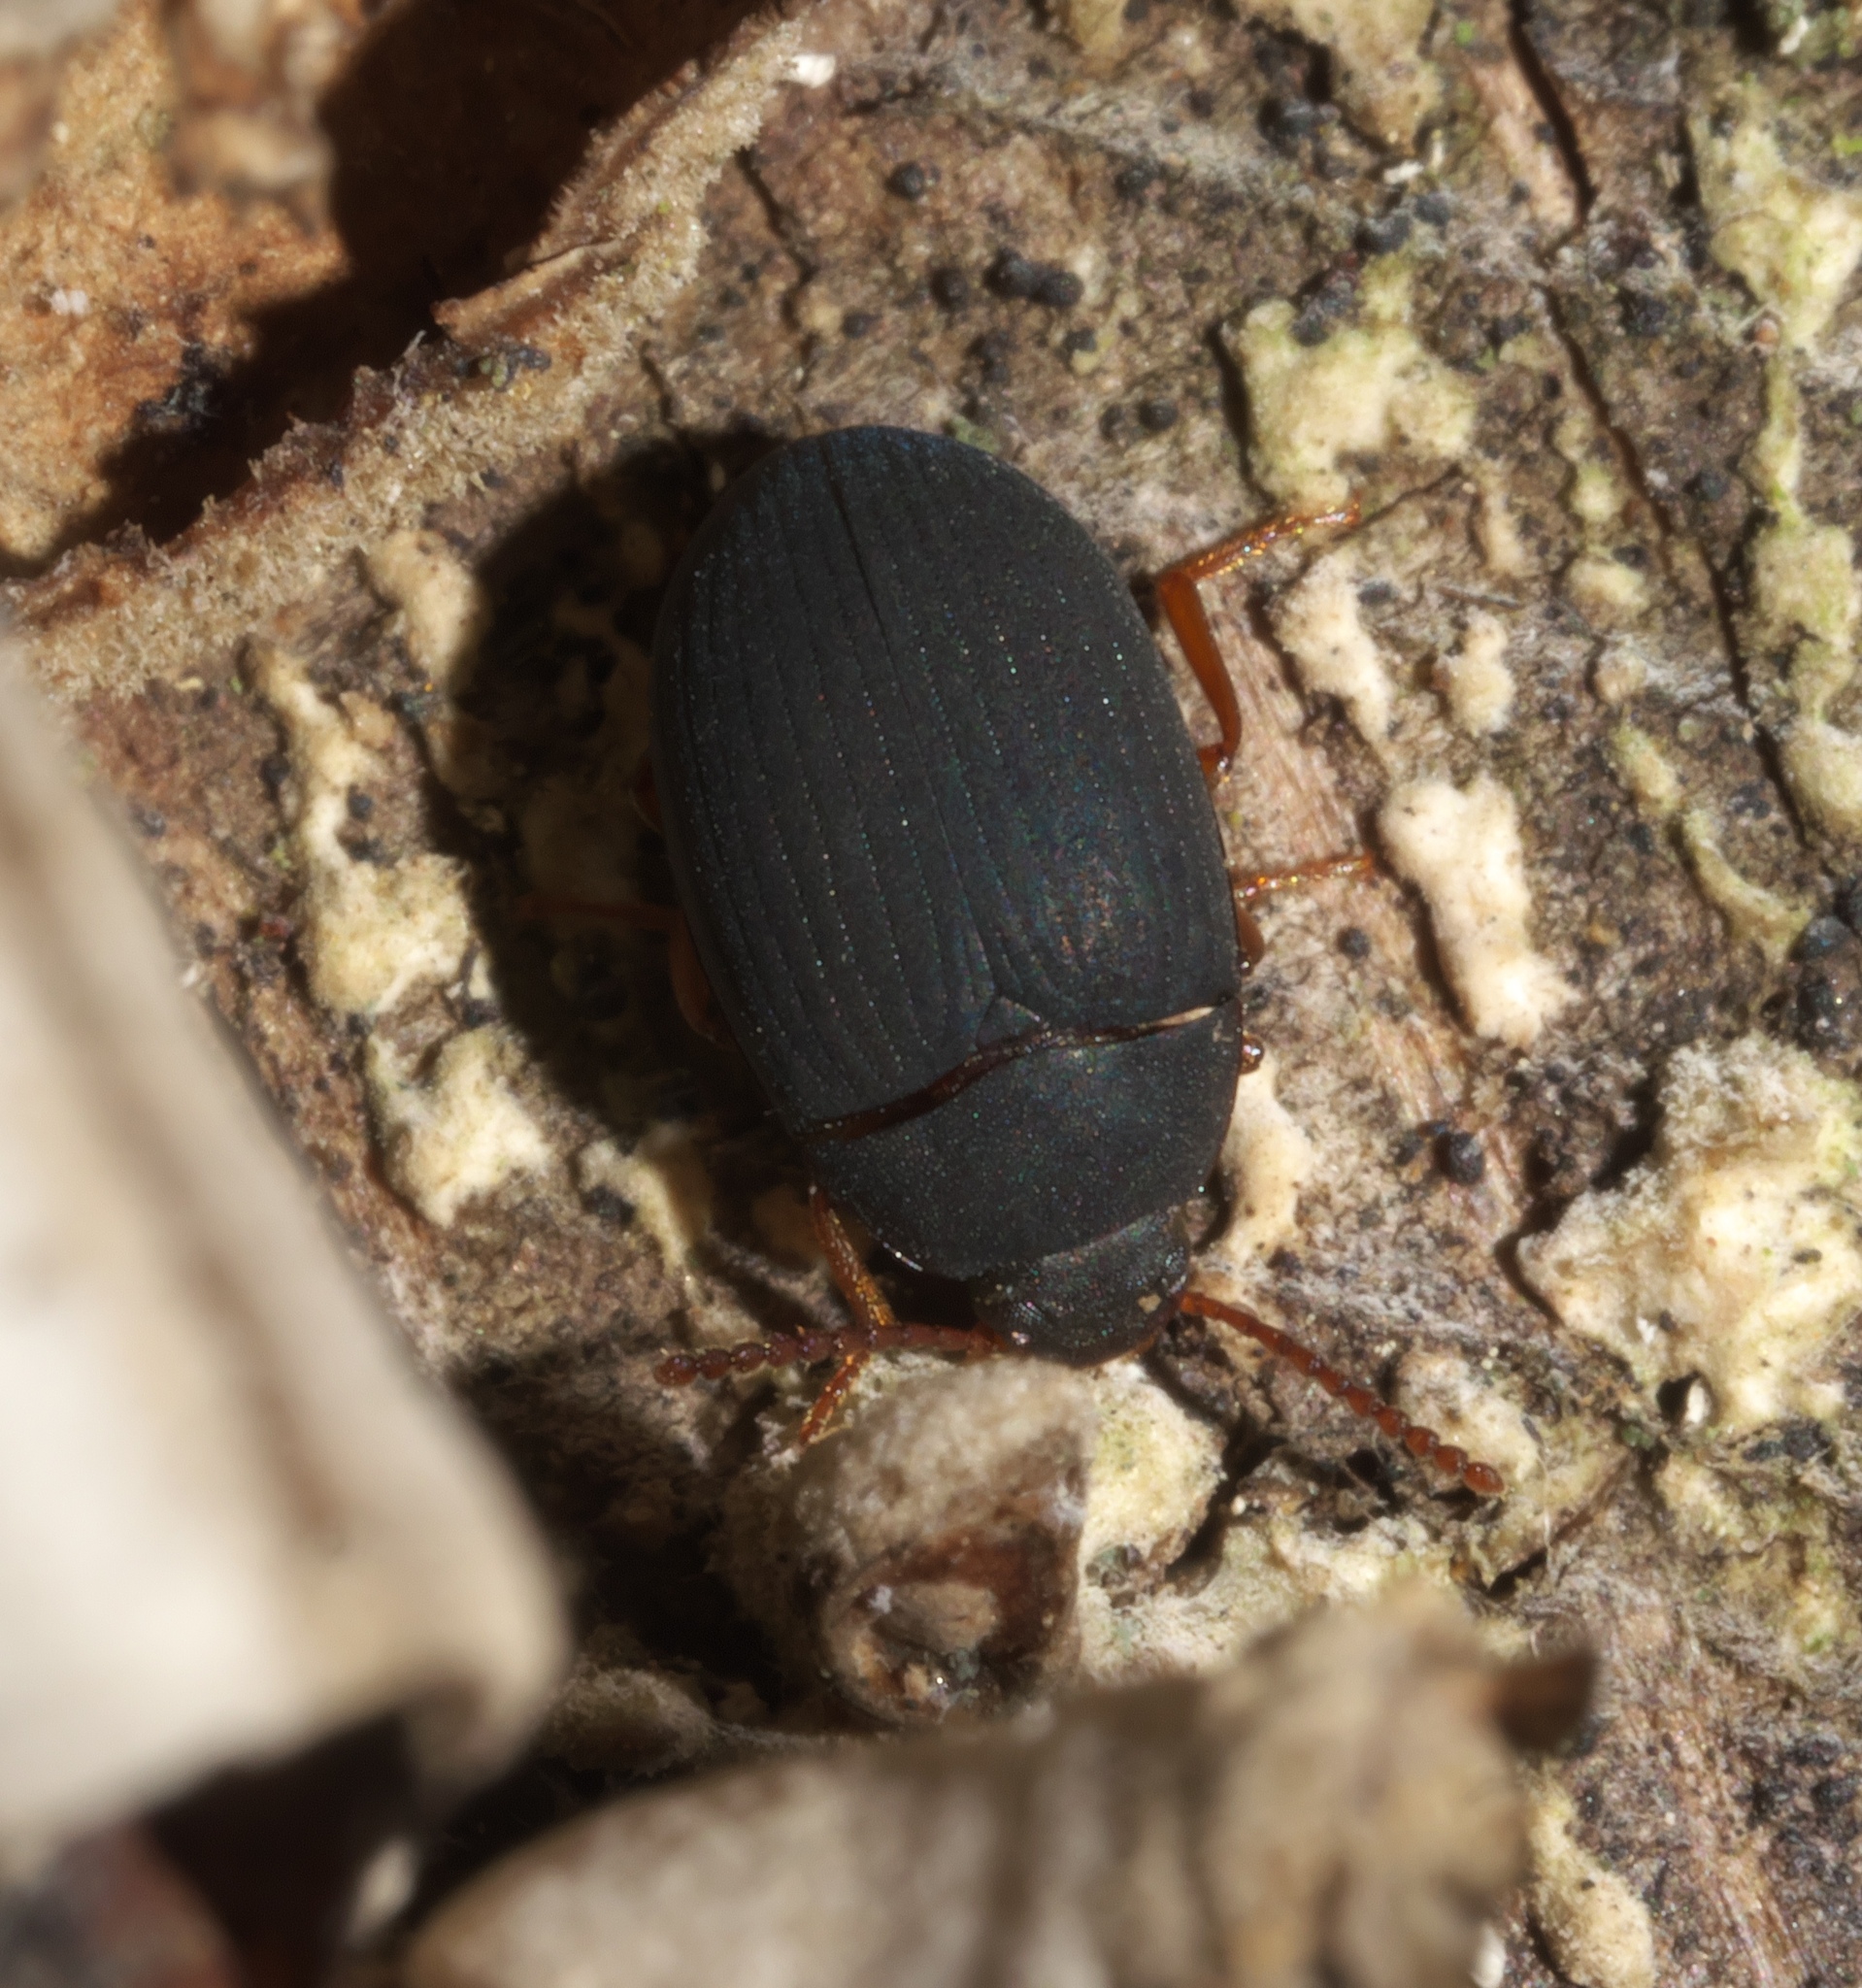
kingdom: Animalia
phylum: Arthropoda
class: Insecta
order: Coleoptera
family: Tenebrionidae
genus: Platydema
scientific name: Platydema ruficornis
